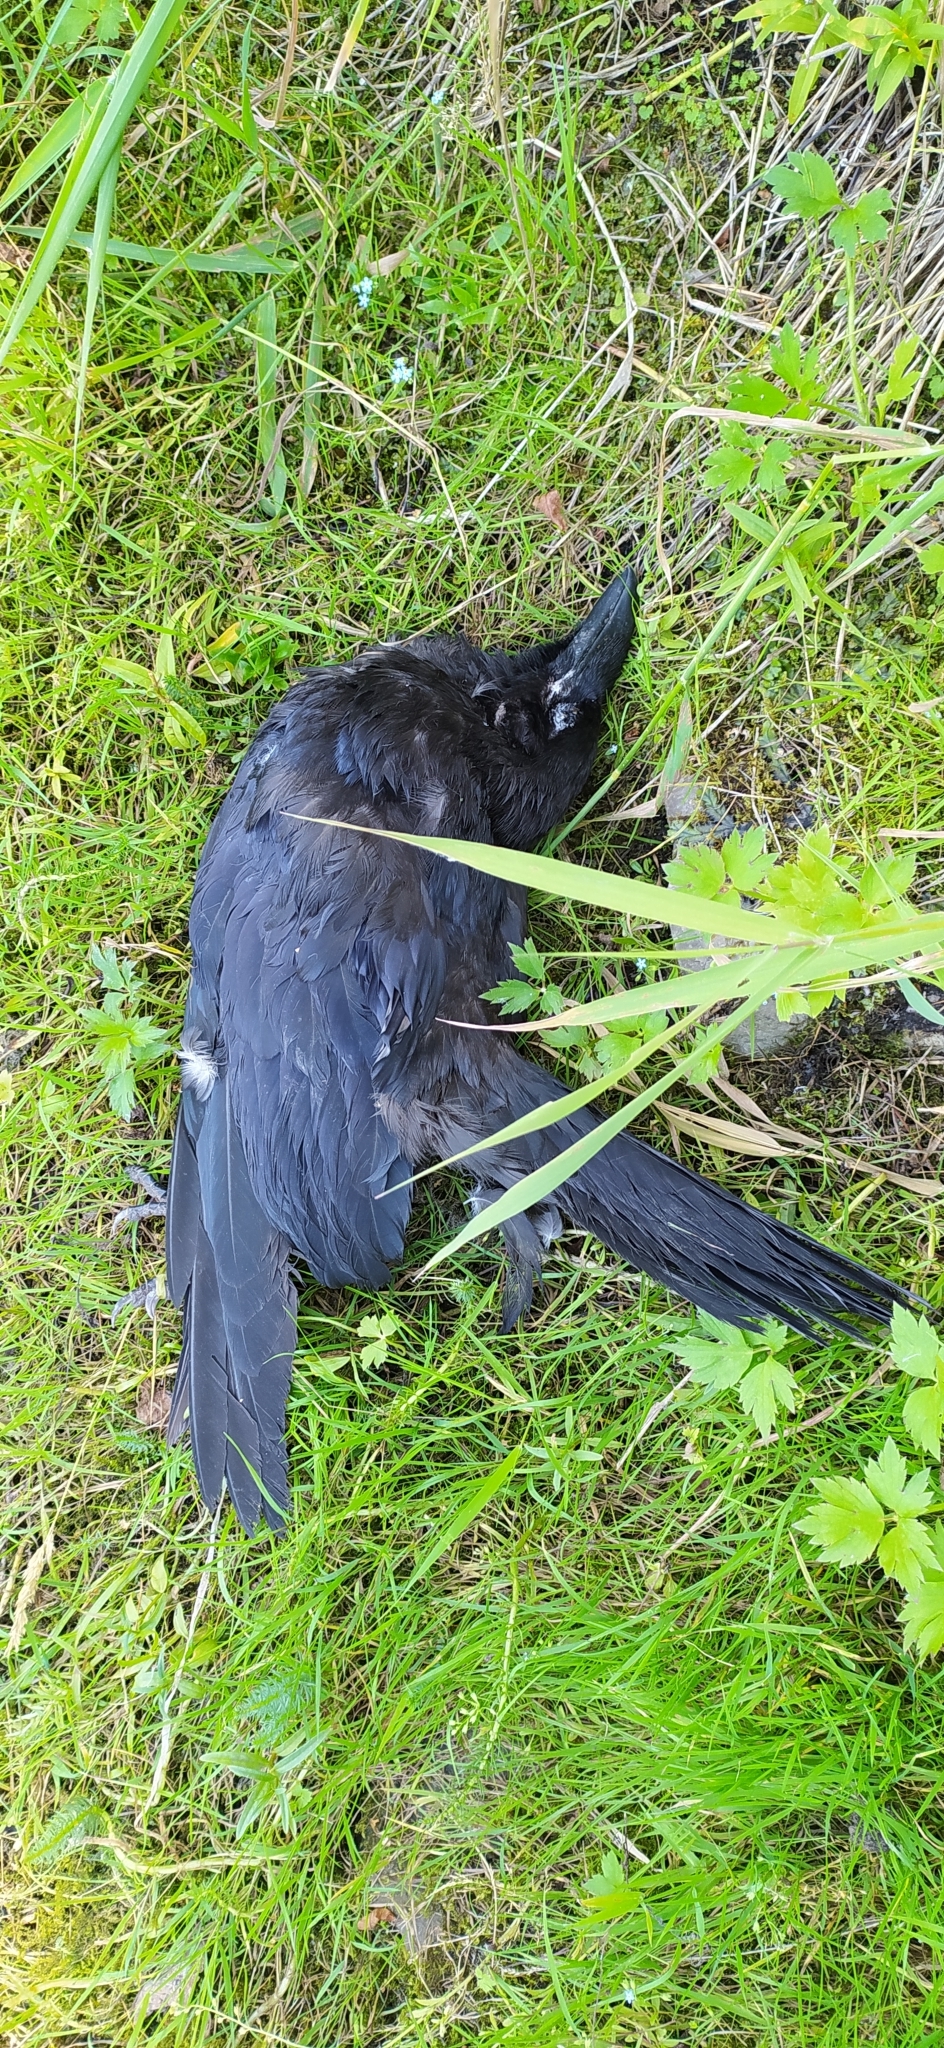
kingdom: Animalia
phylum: Chordata
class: Aves
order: Passeriformes
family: Corvidae
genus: Corvus
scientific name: Corvus corax
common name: Common raven
